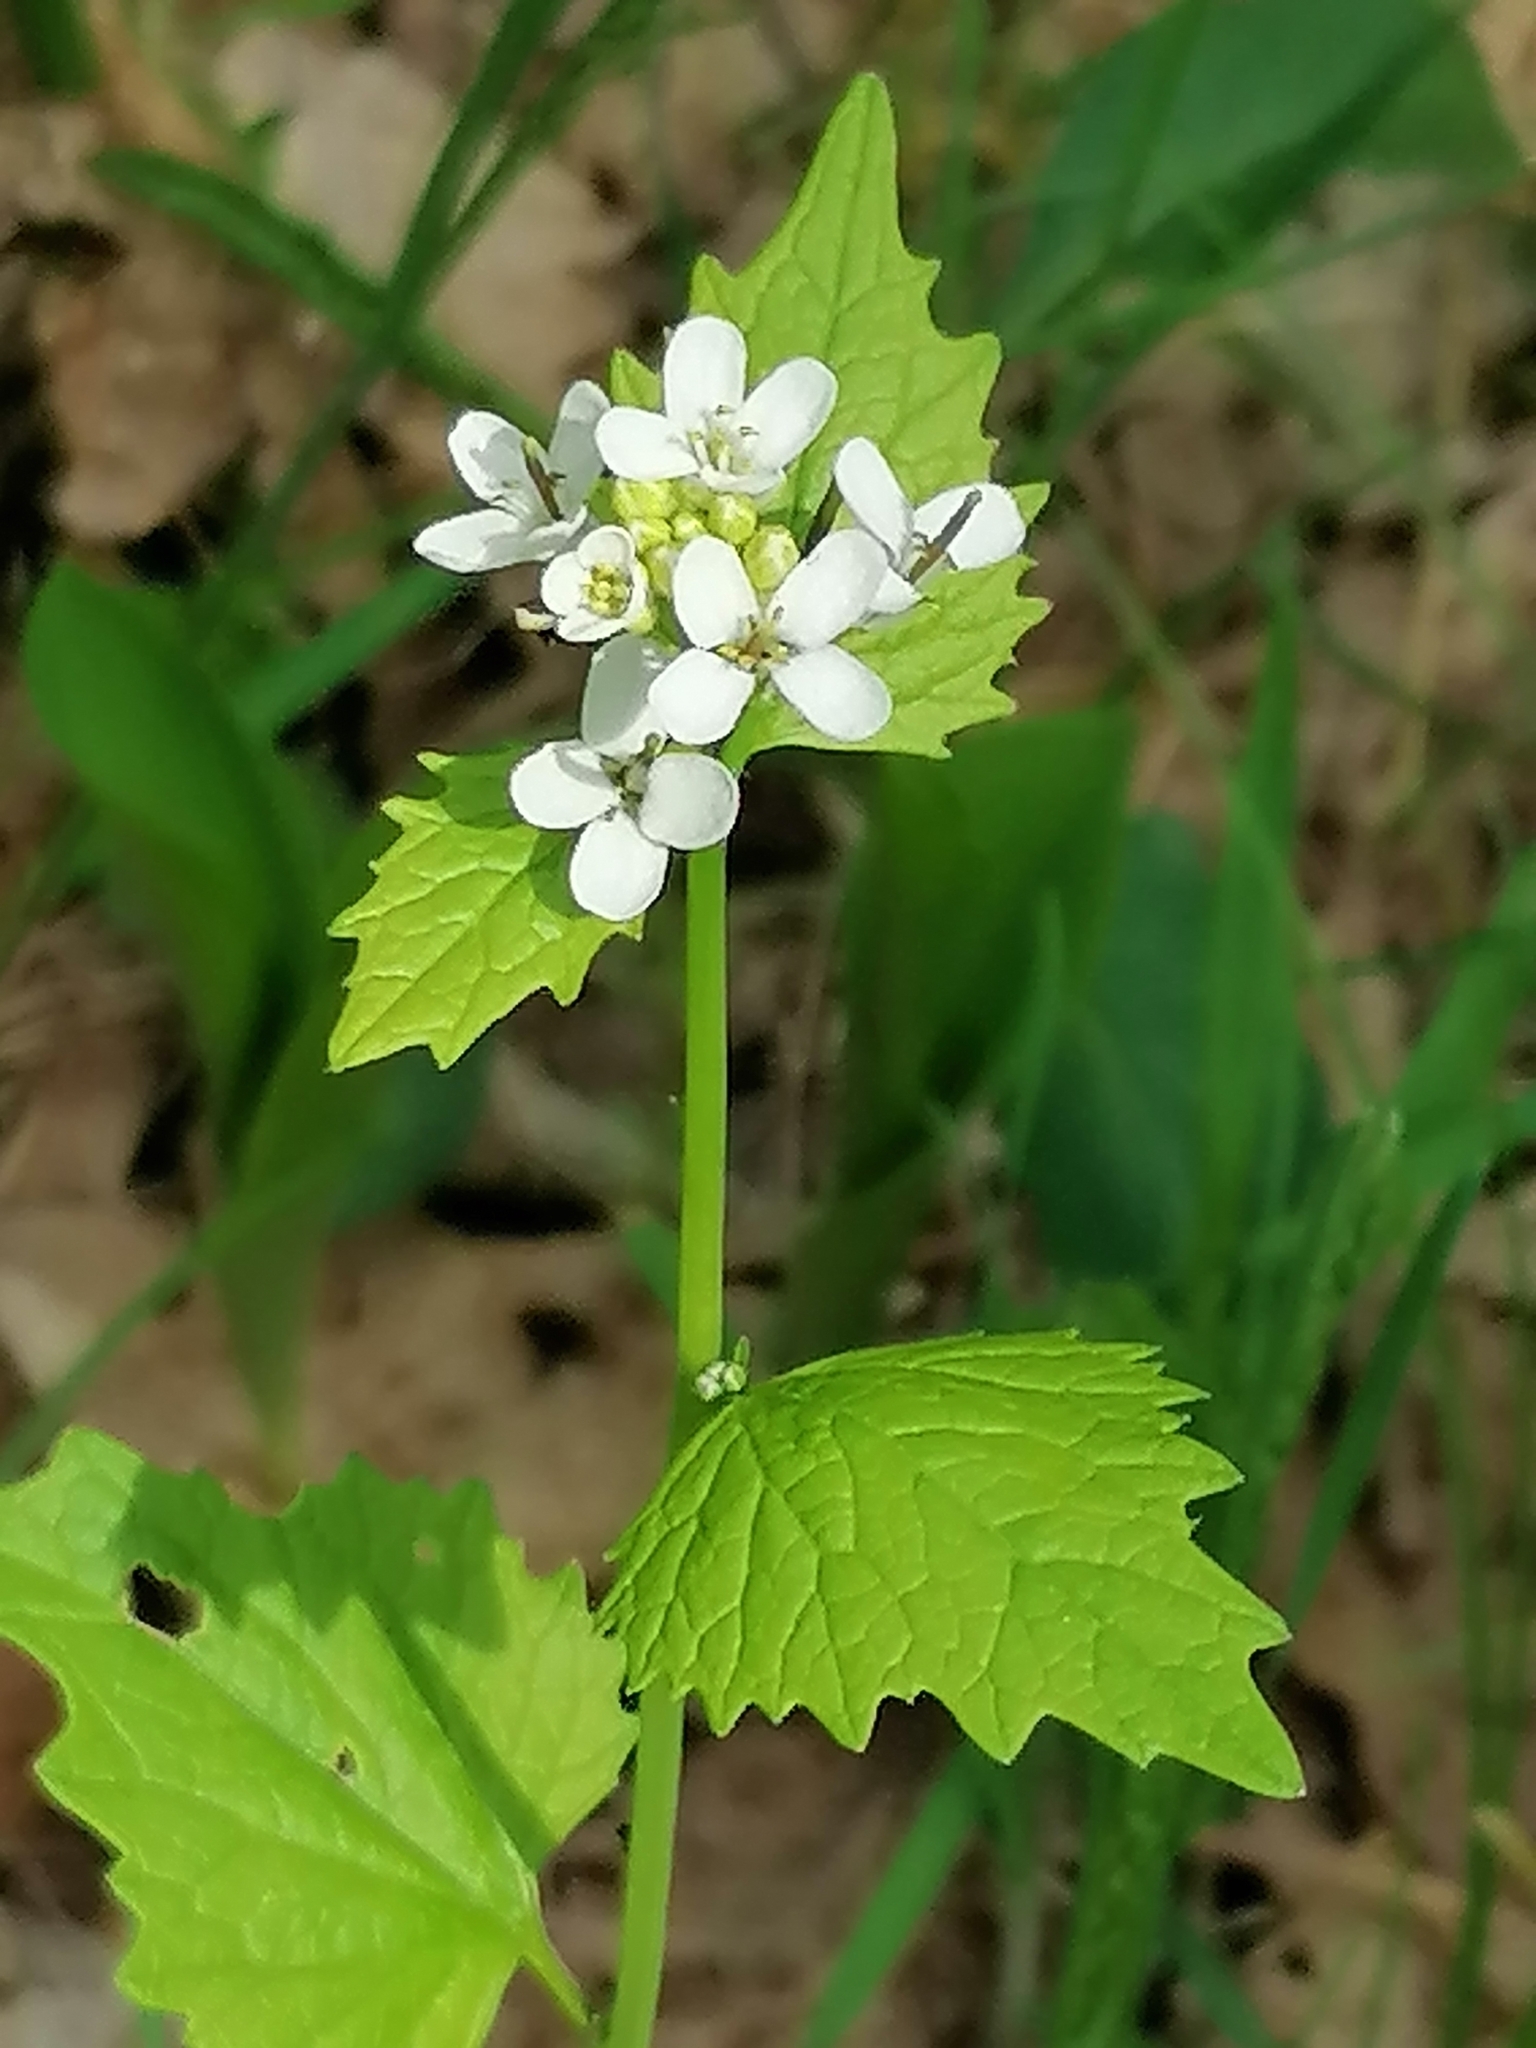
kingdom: Plantae
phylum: Tracheophyta
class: Magnoliopsida
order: Brassicales
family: Brassicaceae
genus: Alliaria
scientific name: Alliaria petiolata
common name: Garlic mustard
